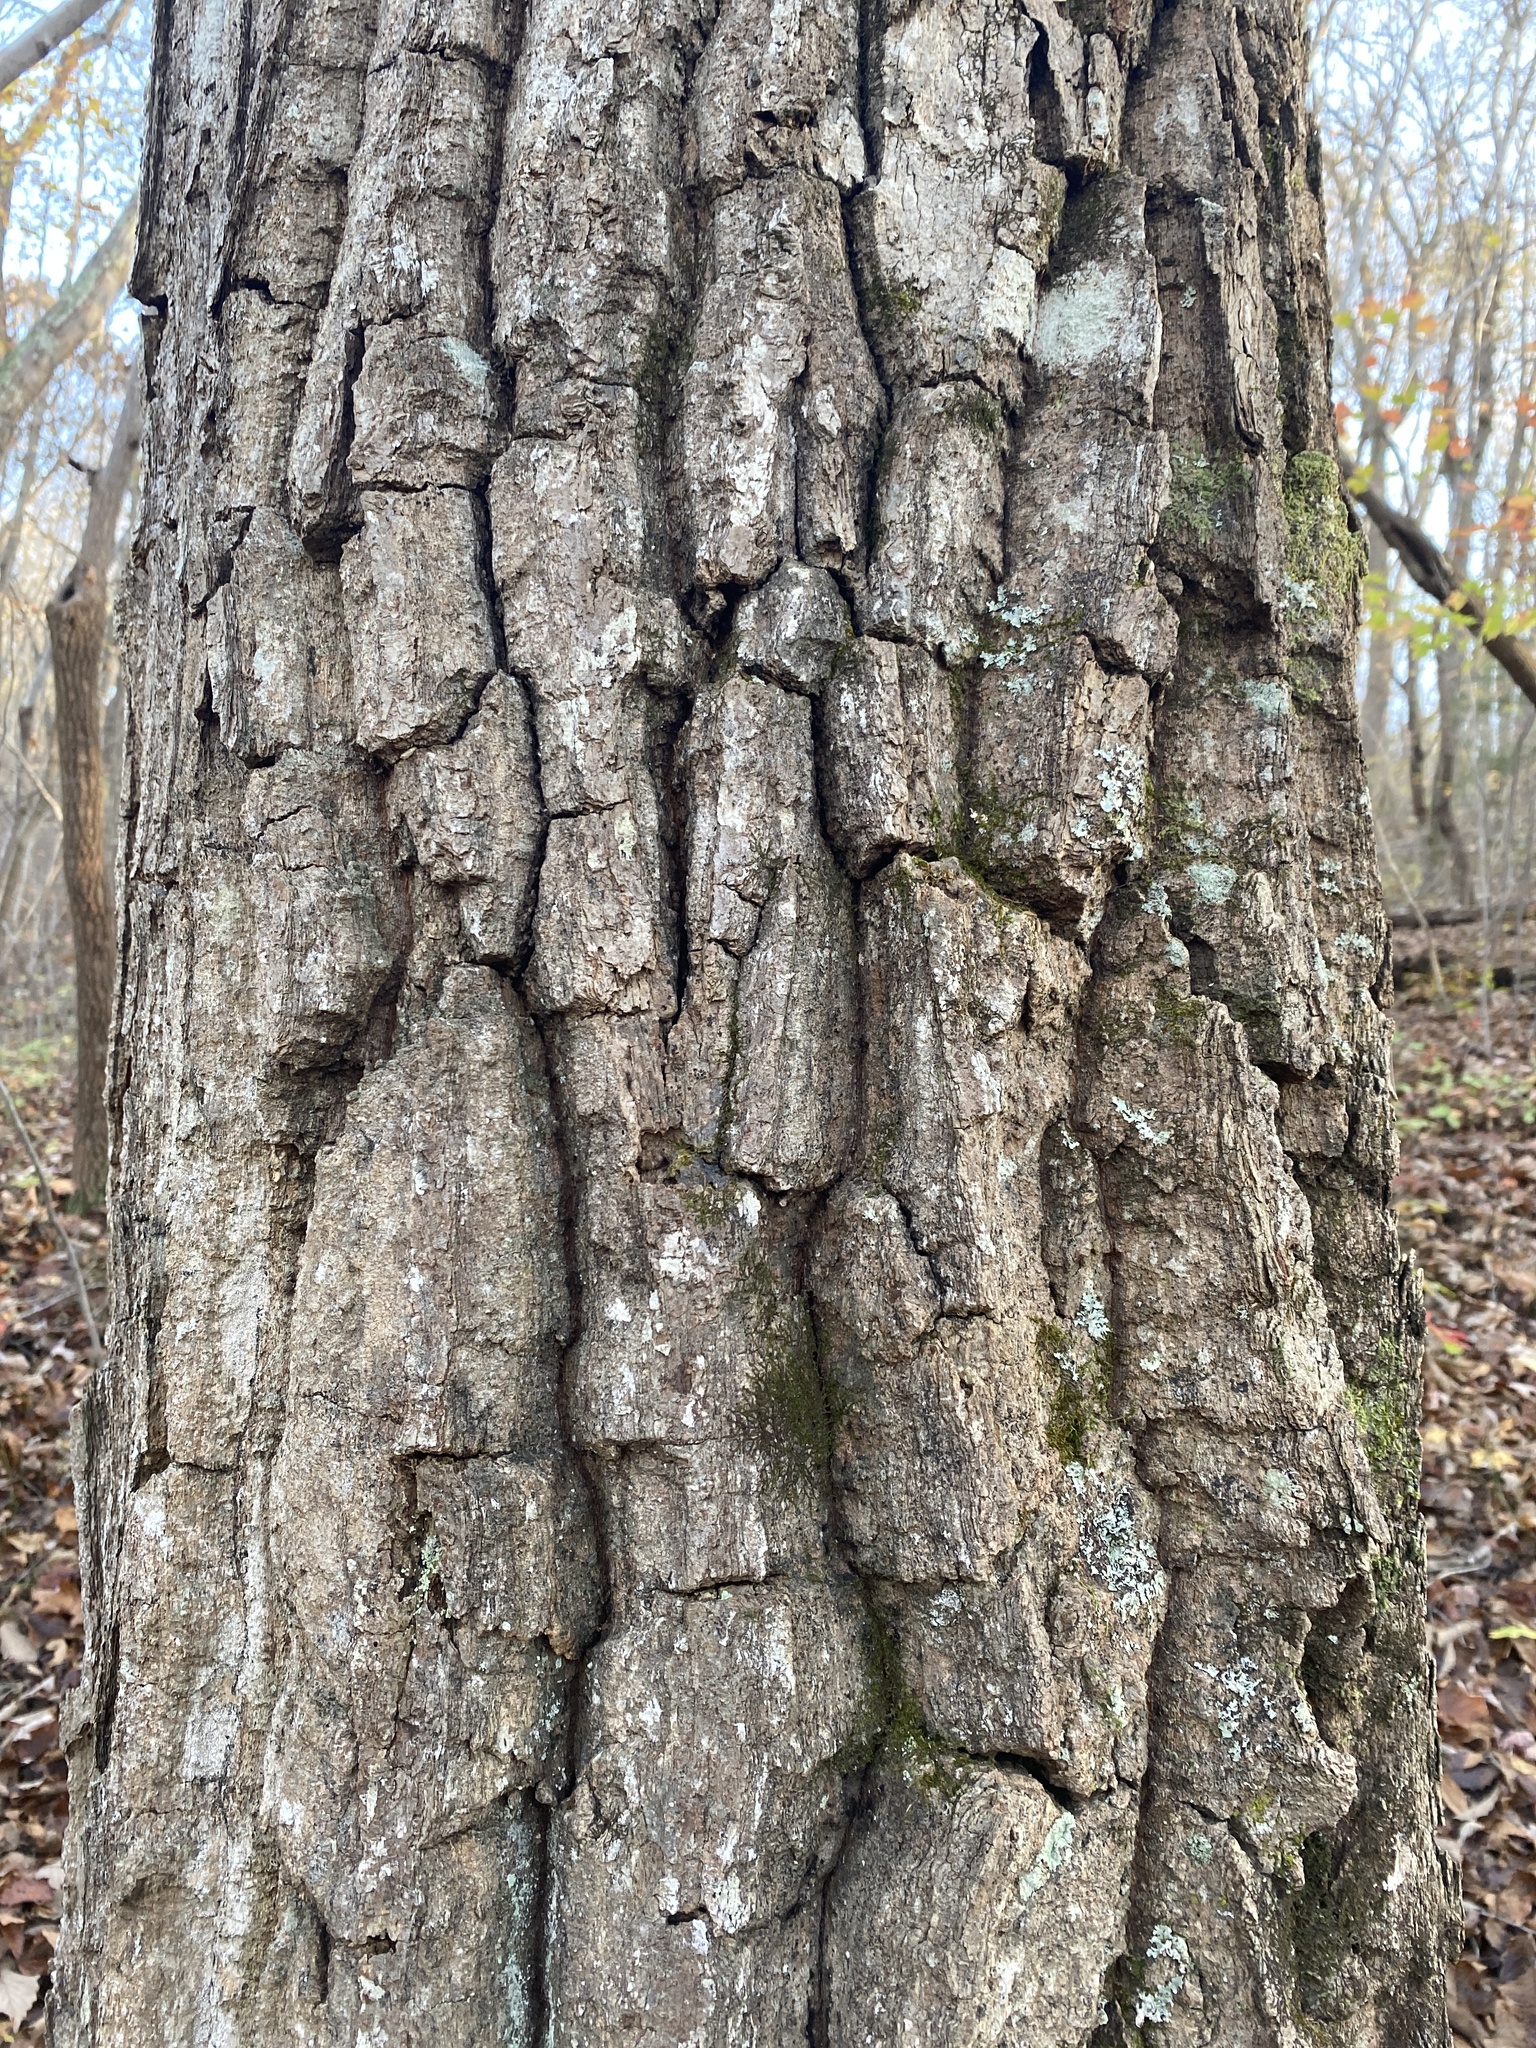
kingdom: Plantae
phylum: Tracheophyta
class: Magnoliopsida
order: Fagales
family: Fagaceae
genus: Quercus
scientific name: Quercus montana
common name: Chestnut oak
